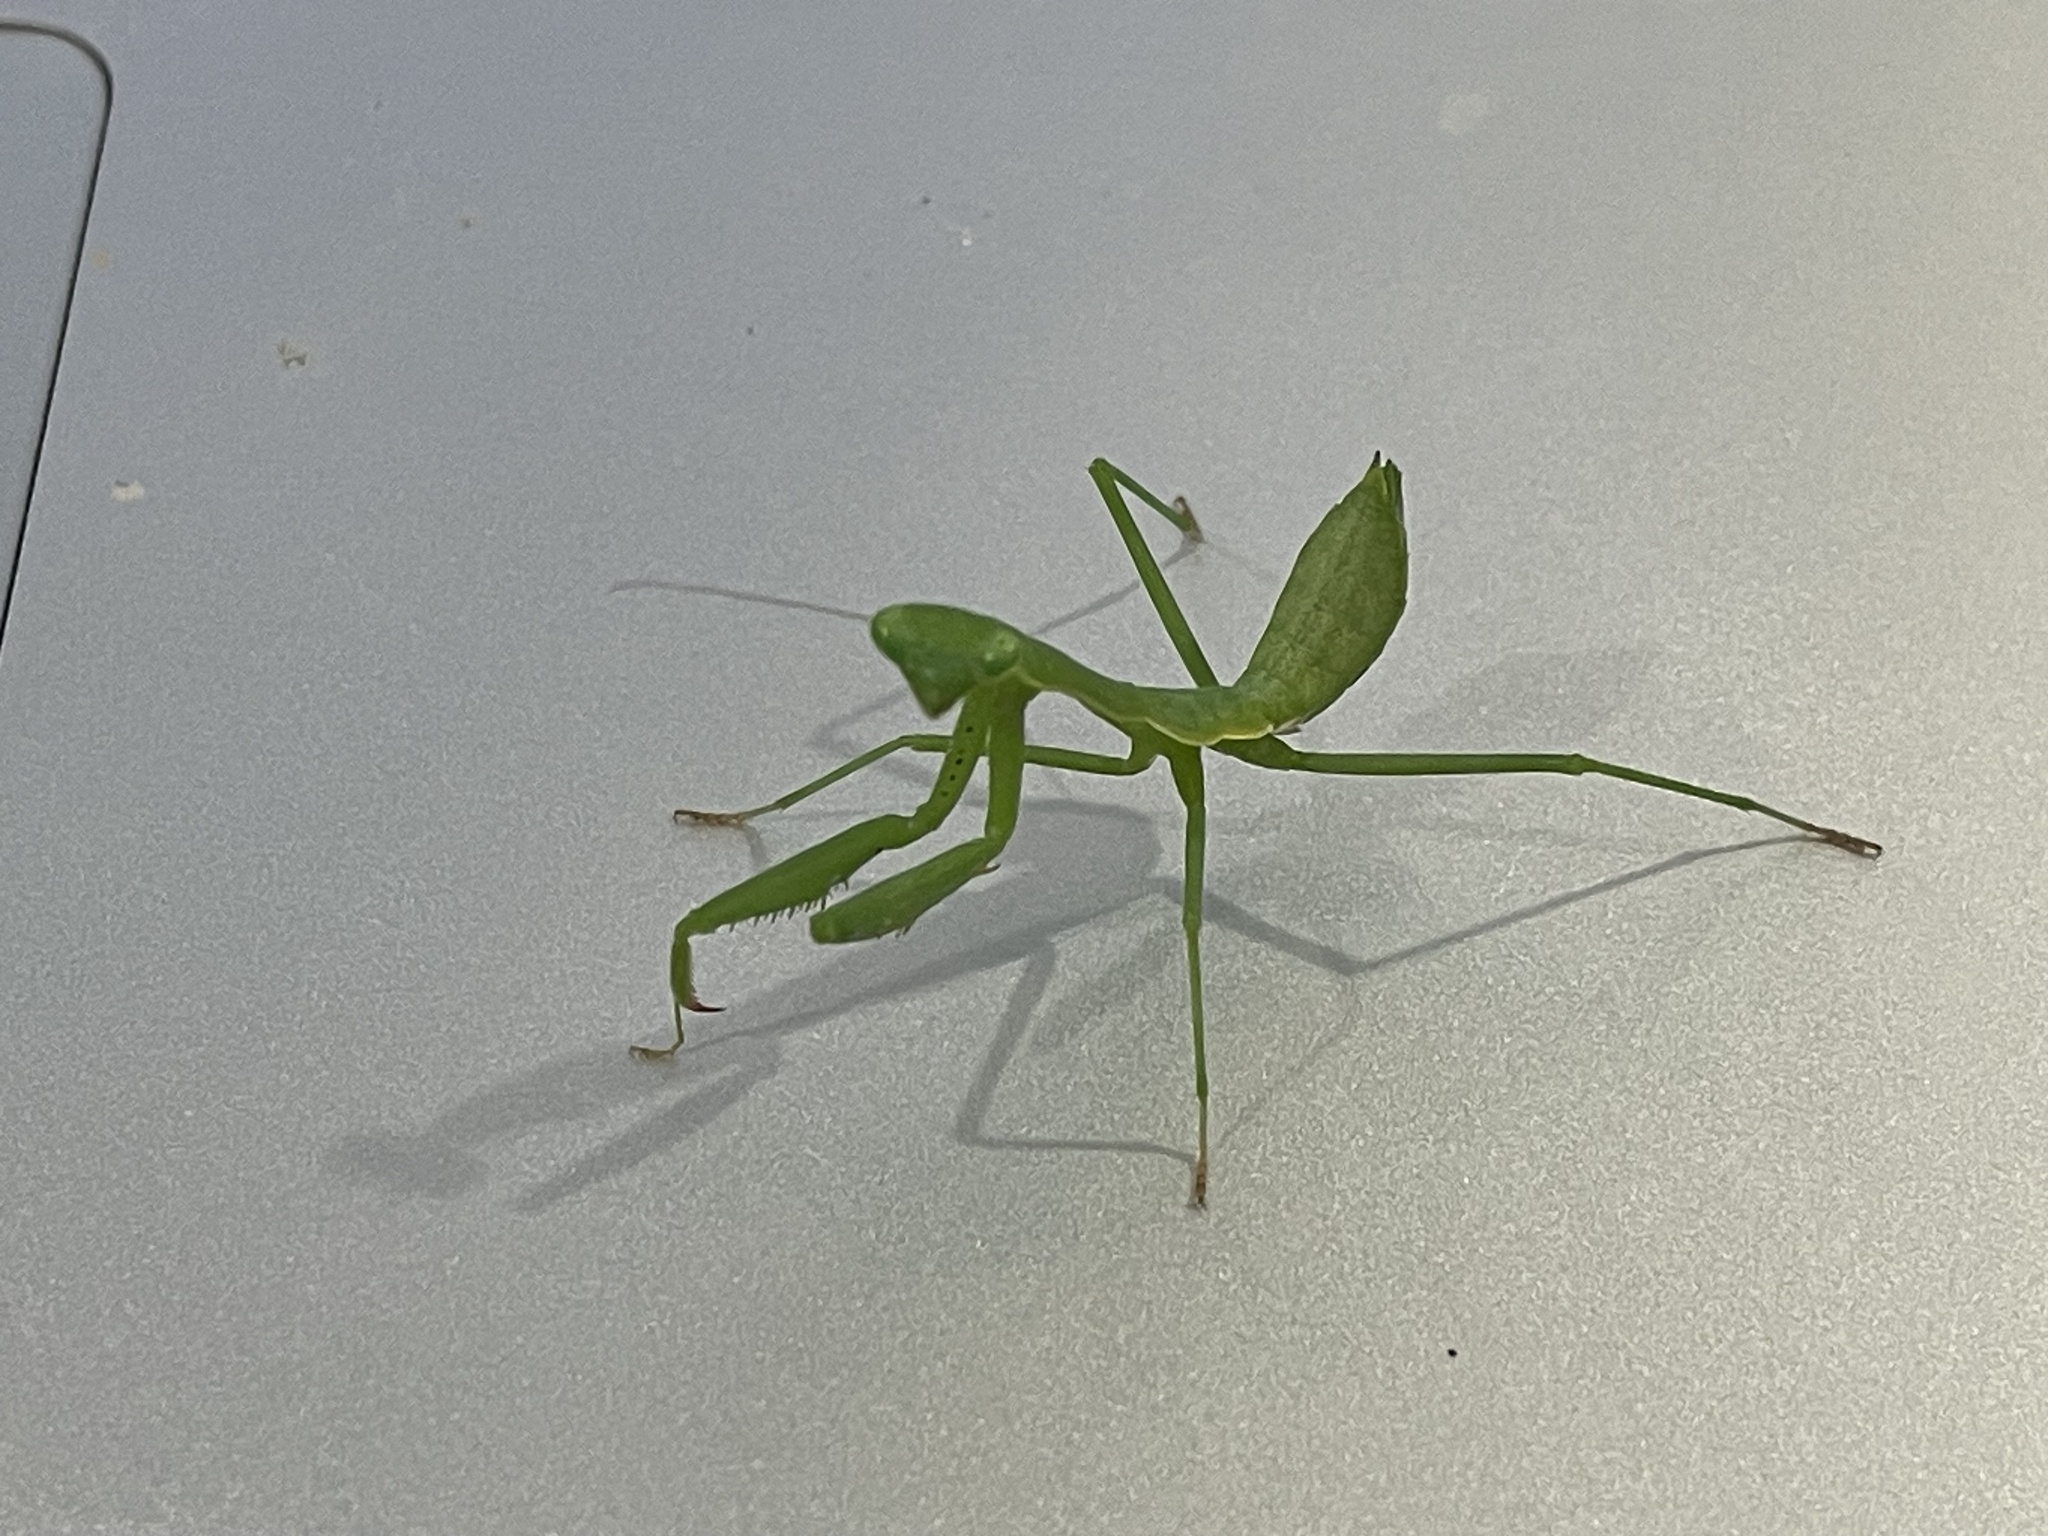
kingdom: Animalia
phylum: Arthropoda
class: Insecta
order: Mantodea
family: Miomantidae
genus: Miomantis
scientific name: Miomantis caffra
